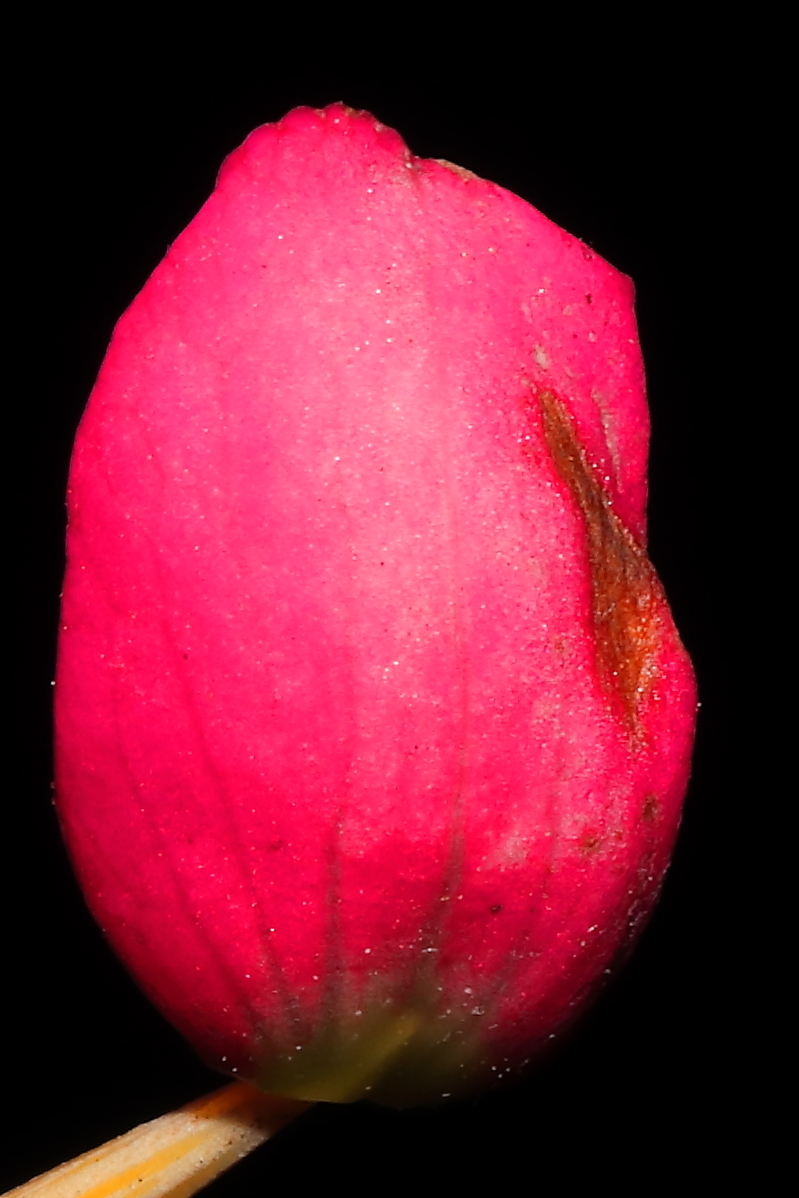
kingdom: Plantae
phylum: Tracheophyta
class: Magnoliopsida
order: Cucurbitales
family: Begoniaceae
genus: Begonia
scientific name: Begonia veitchii
